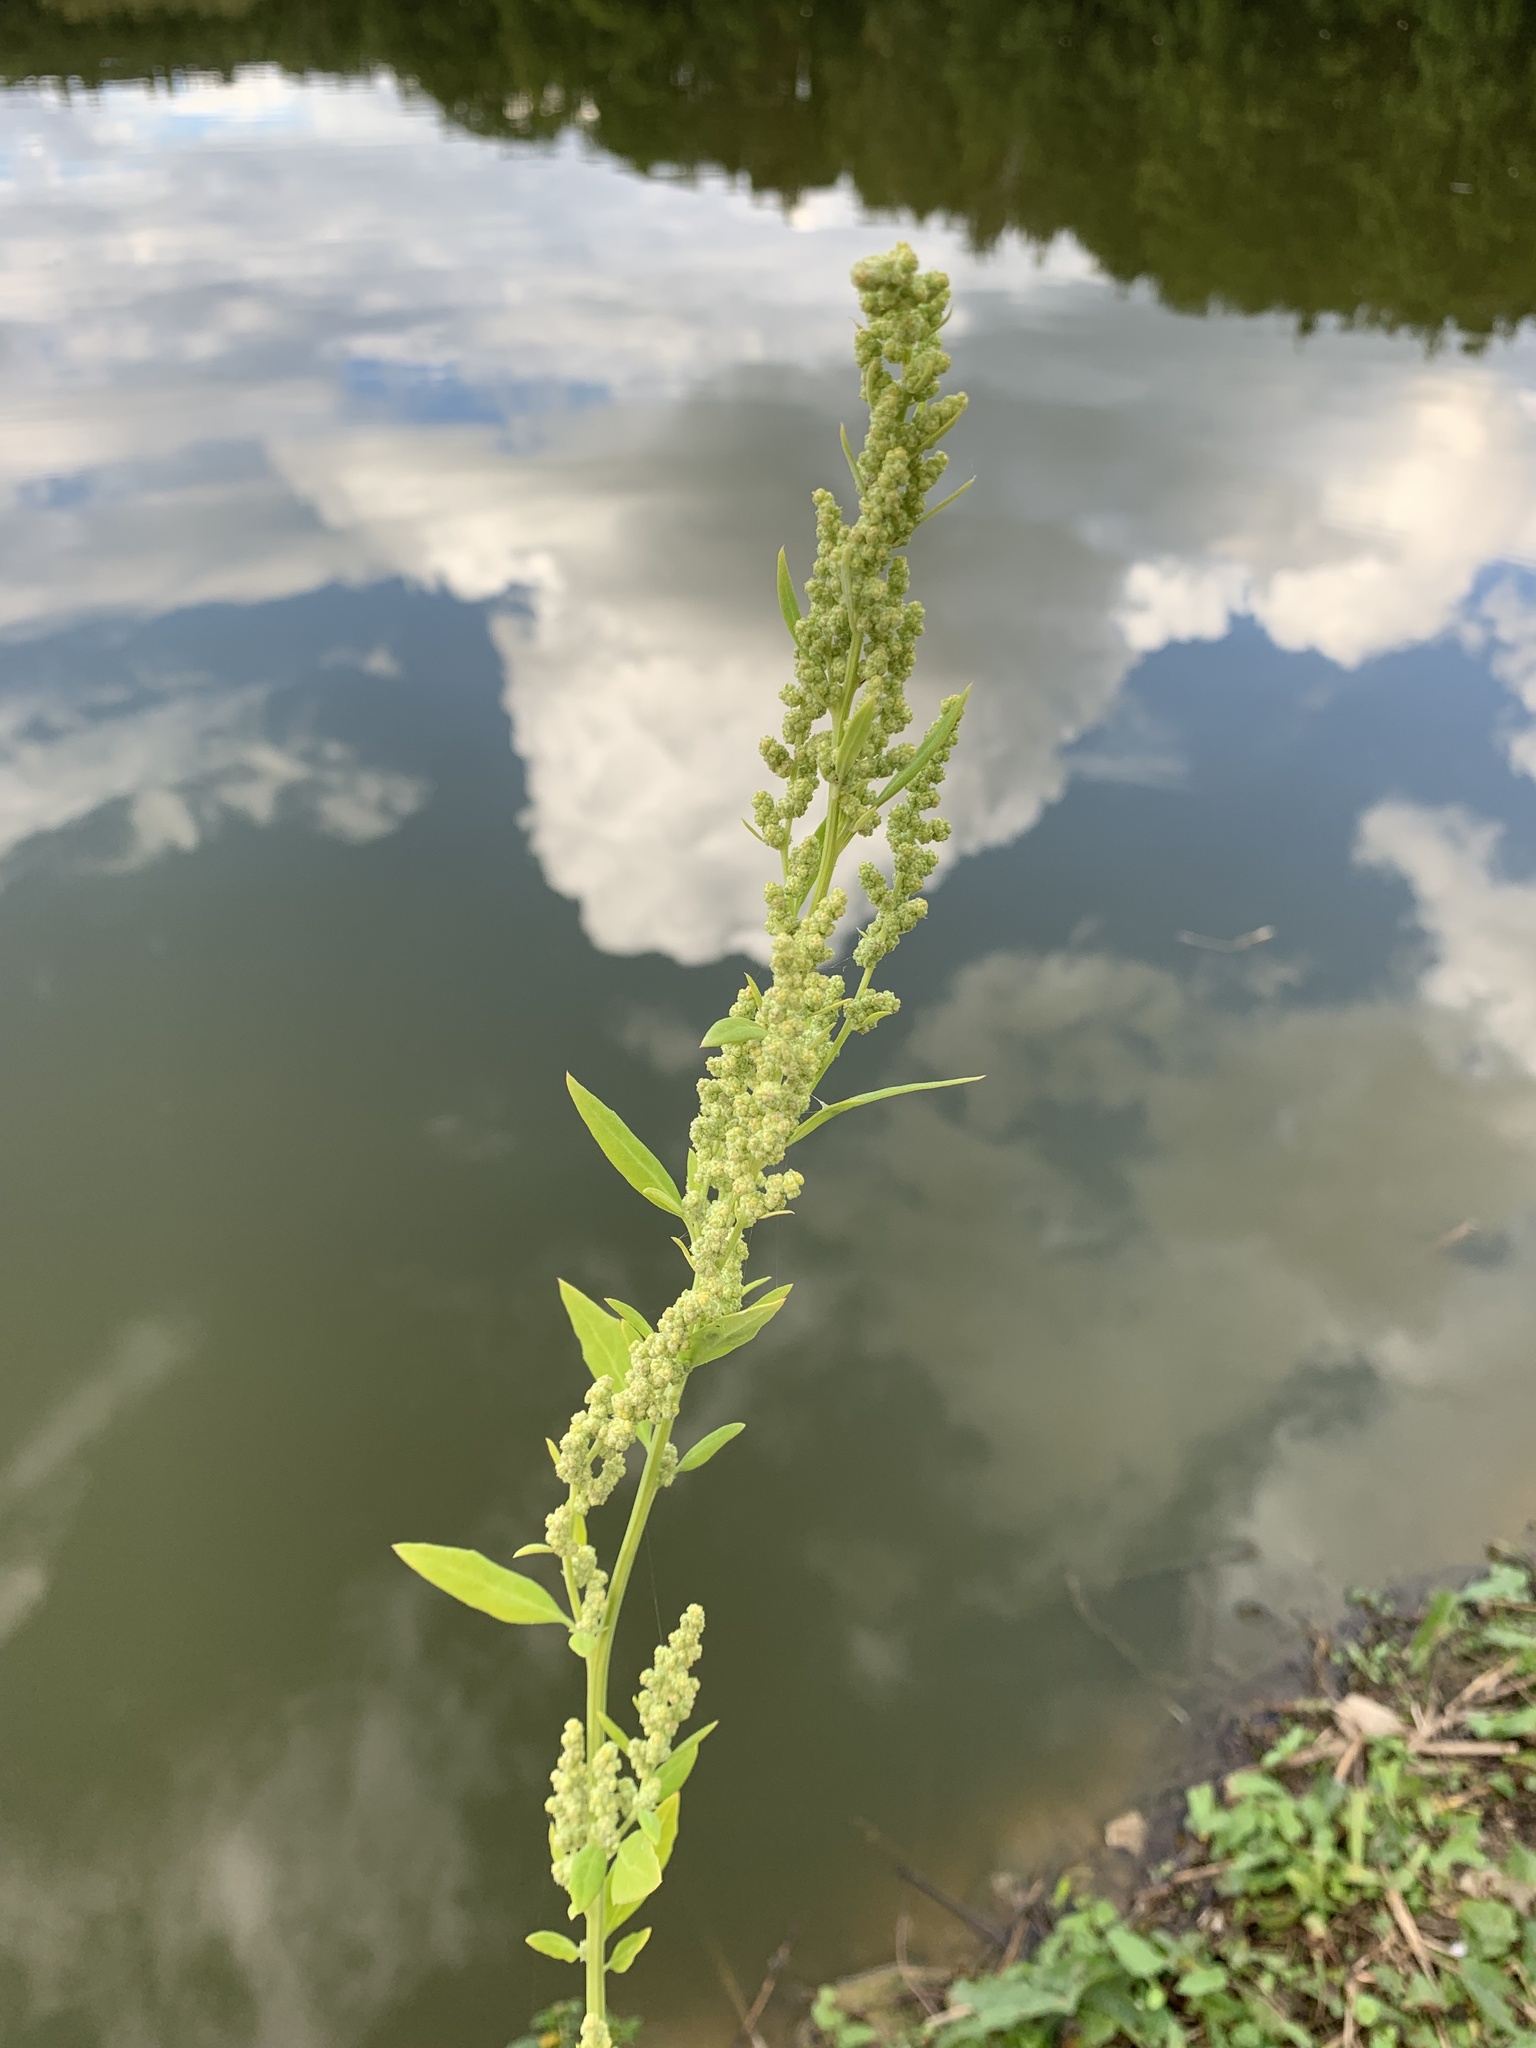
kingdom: Plantae
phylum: Tracheophyta
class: Magnoliopsida
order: Caryophyllales
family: Amaranthaceae
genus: Chenopodium
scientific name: Chenopodium album
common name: Fat-hen
